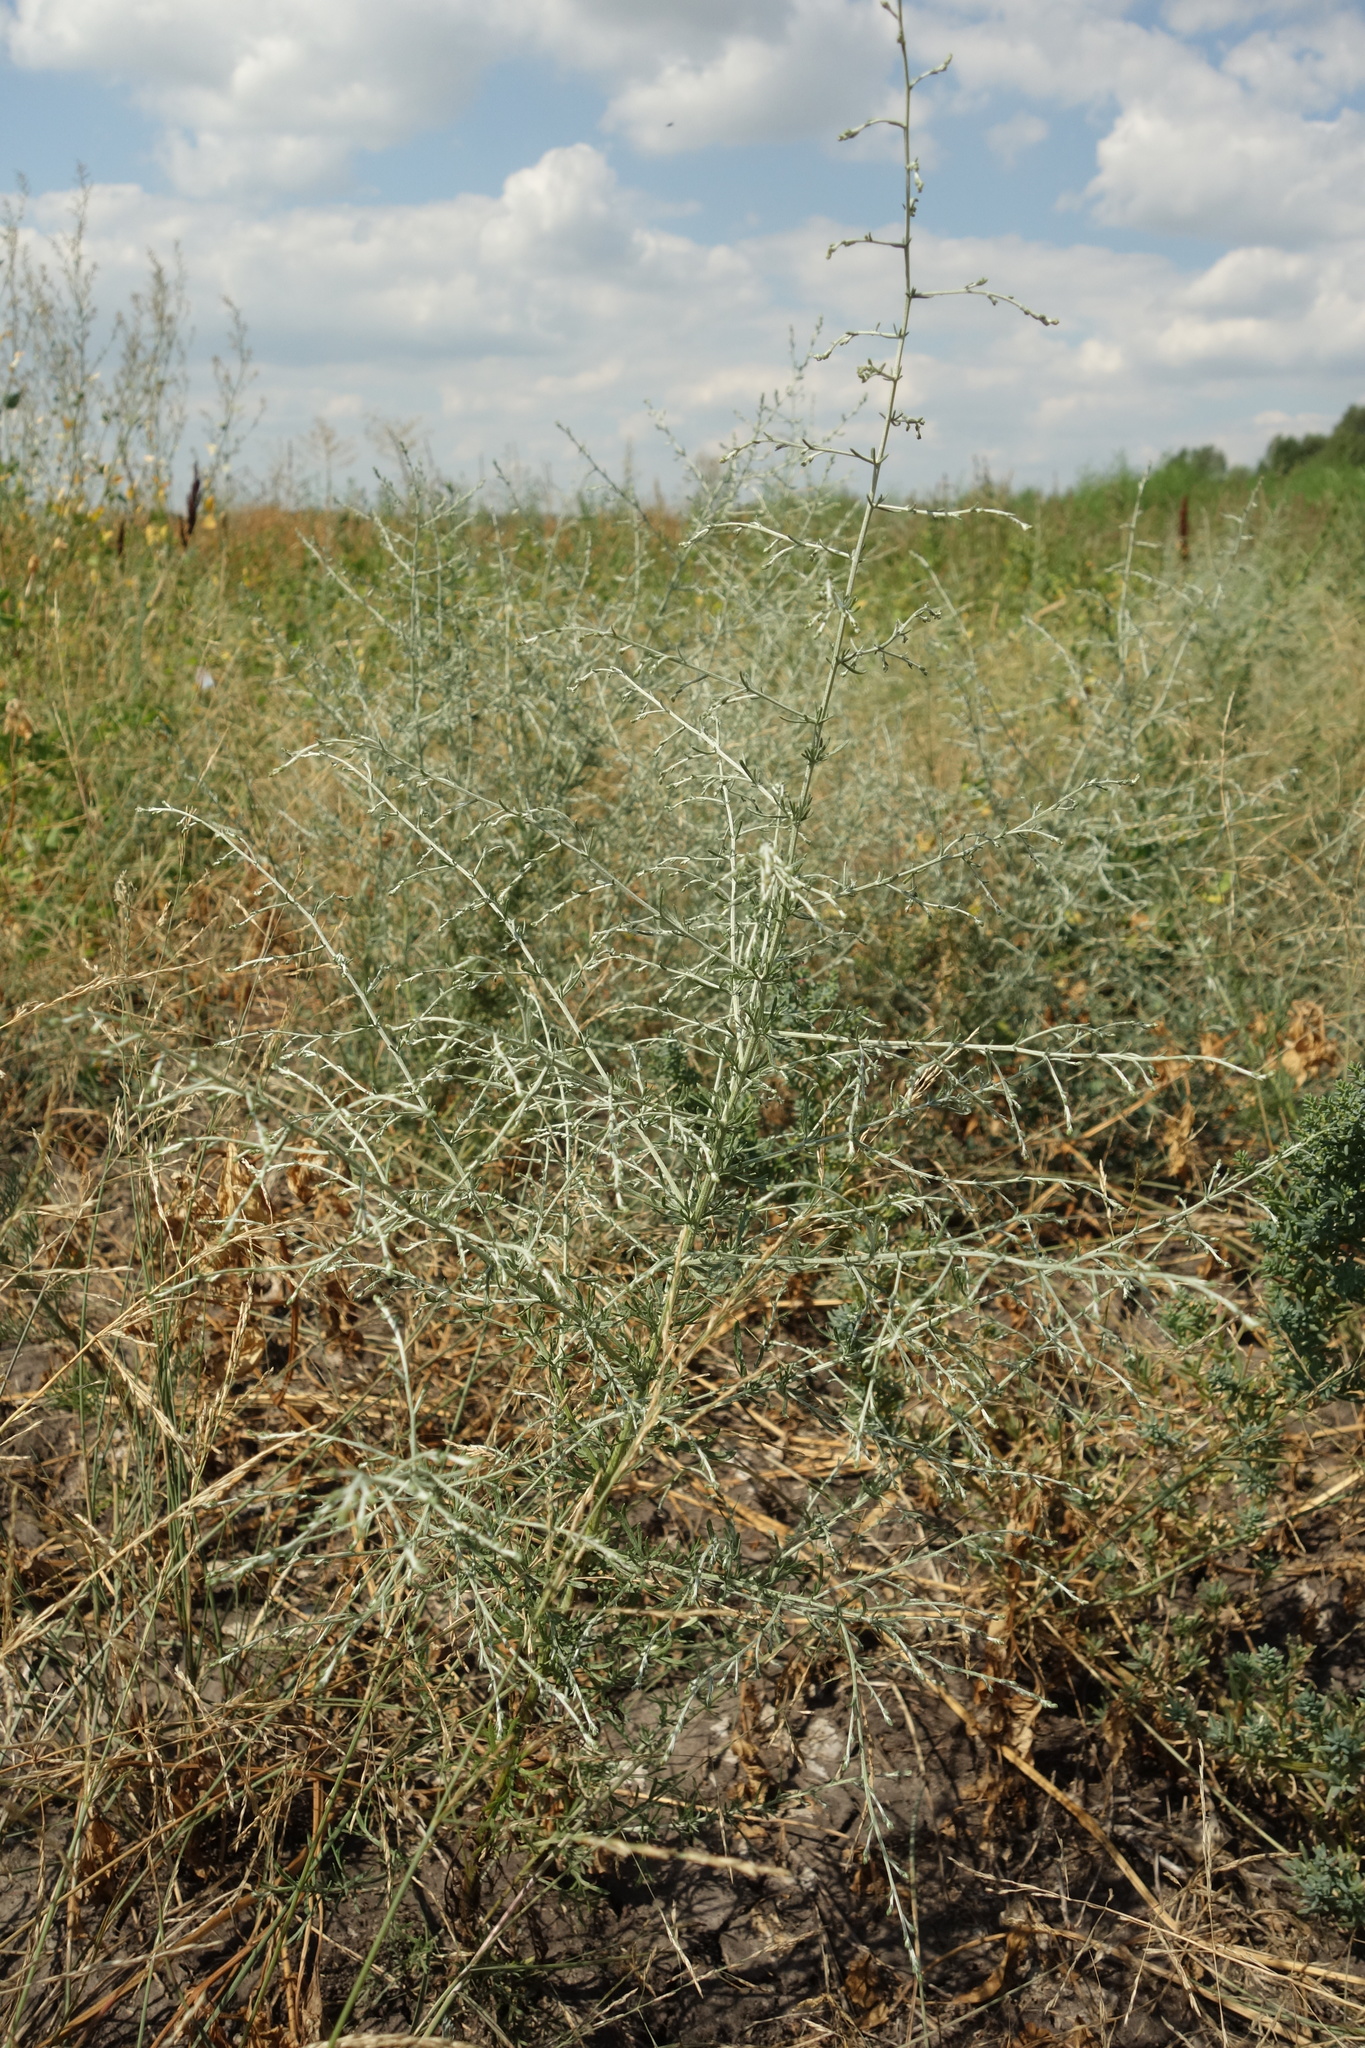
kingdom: Plantae
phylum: Tracheophyta
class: Magnoliopsida
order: Asterales
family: Asteraceae
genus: Artemisia
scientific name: Artemisia santonicum
